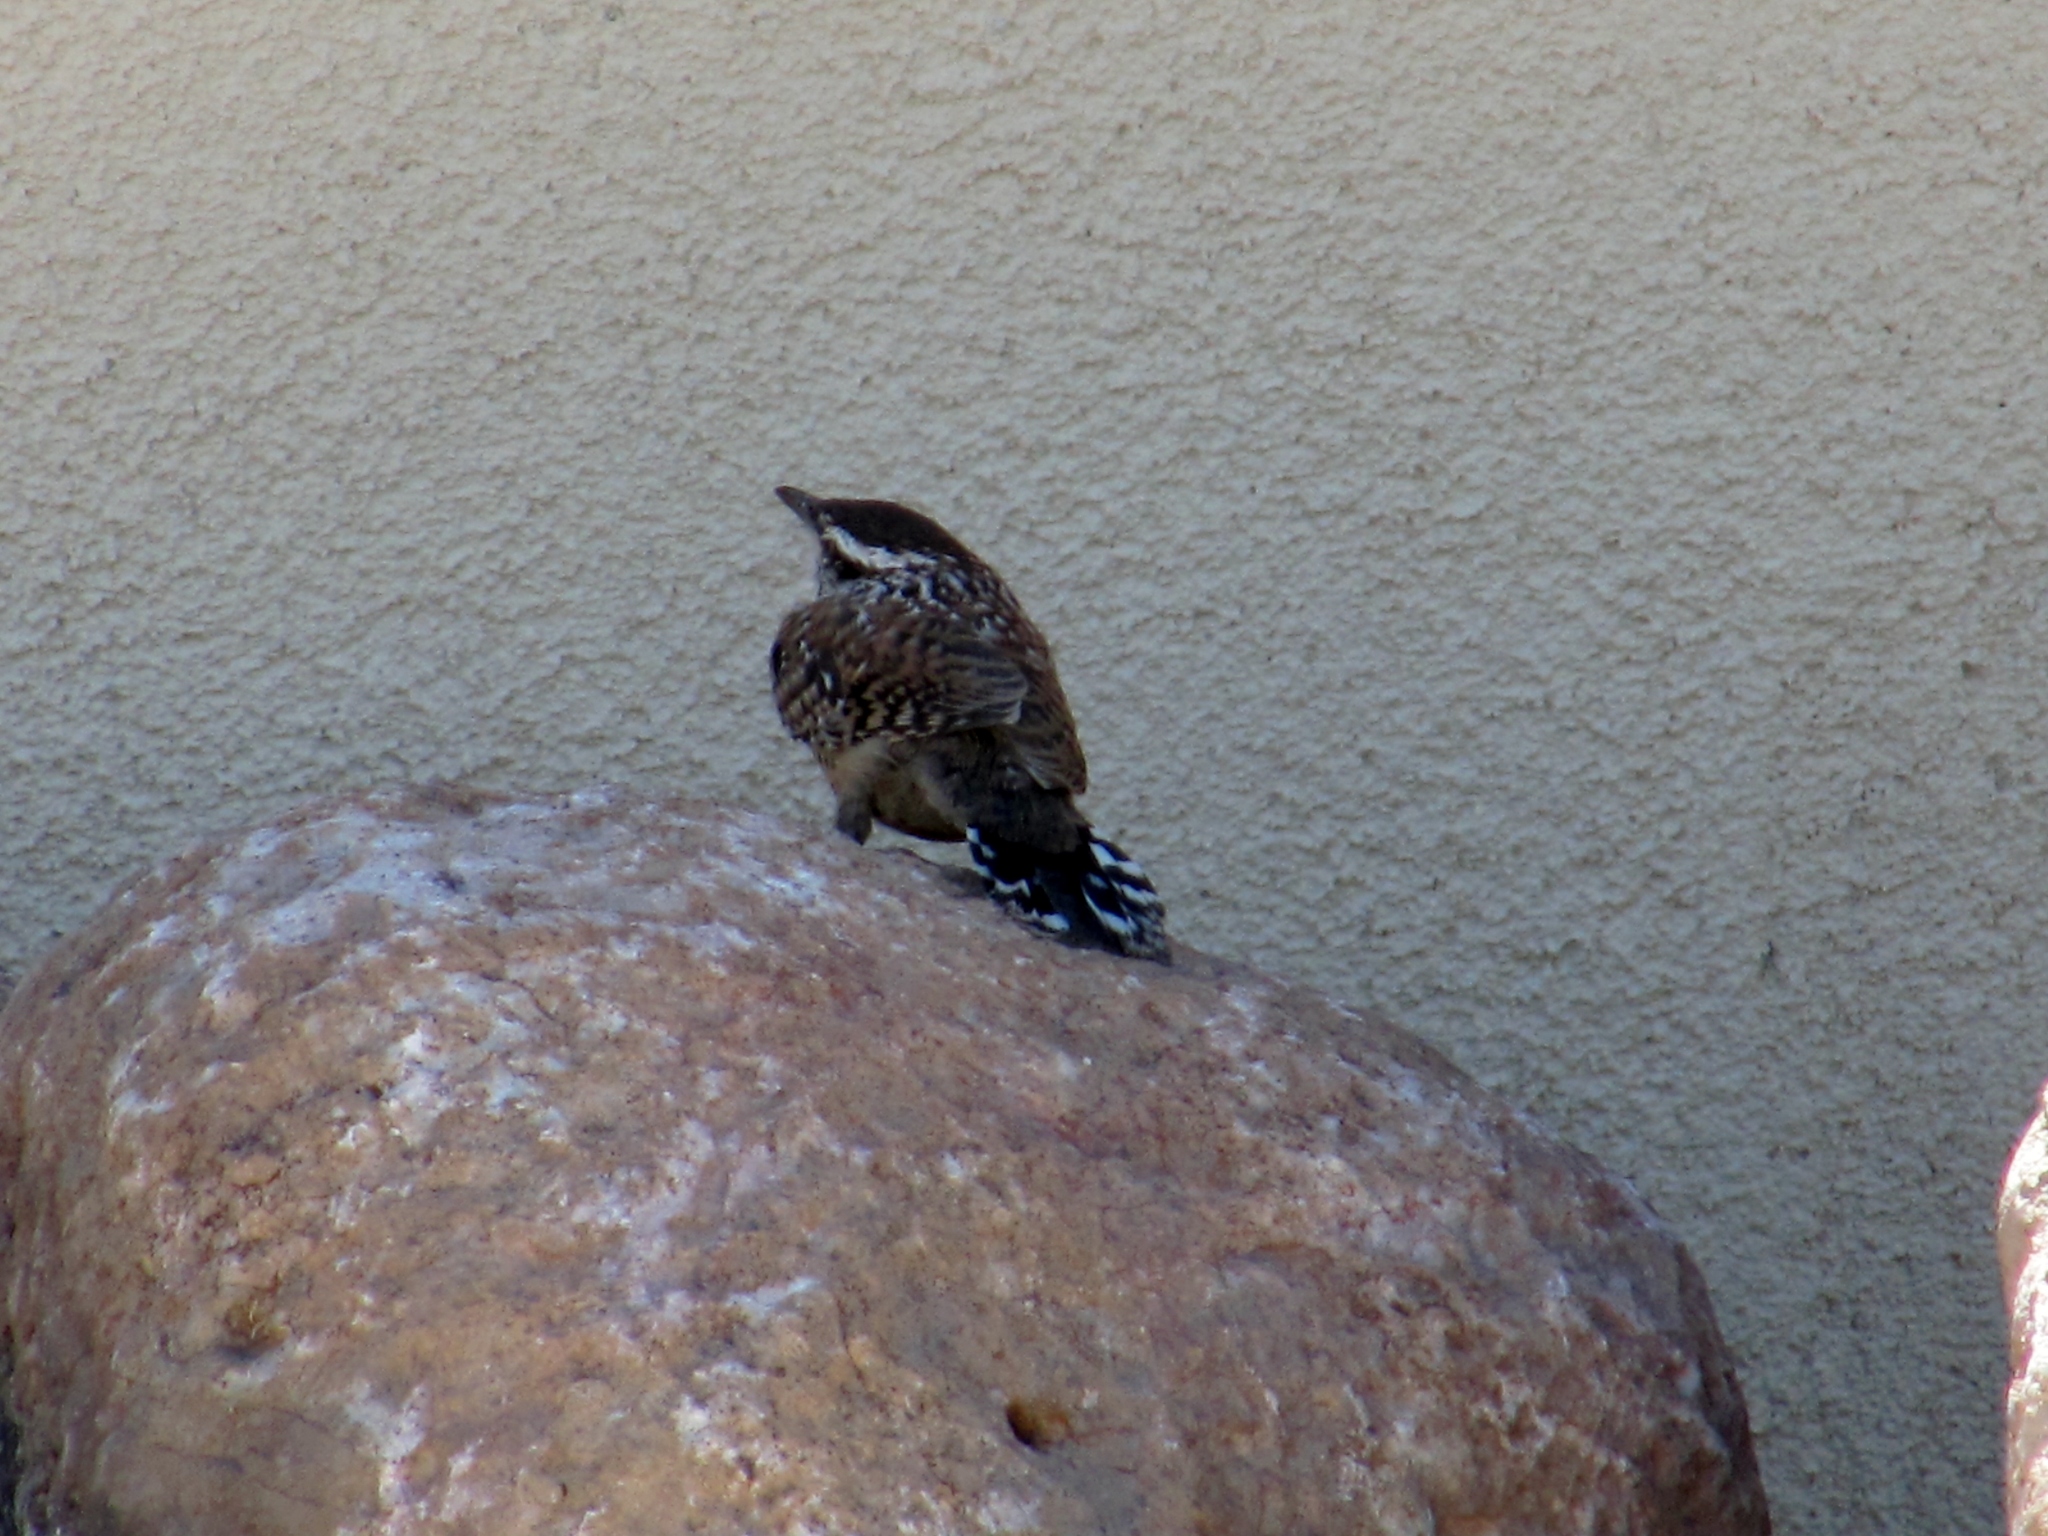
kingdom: Animalia
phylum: Chordata
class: Aves
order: Passeriformes
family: Troglodytidae
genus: Campylorhynchus
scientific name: Campylorhynchus brunneicapillus
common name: Cactus wren
